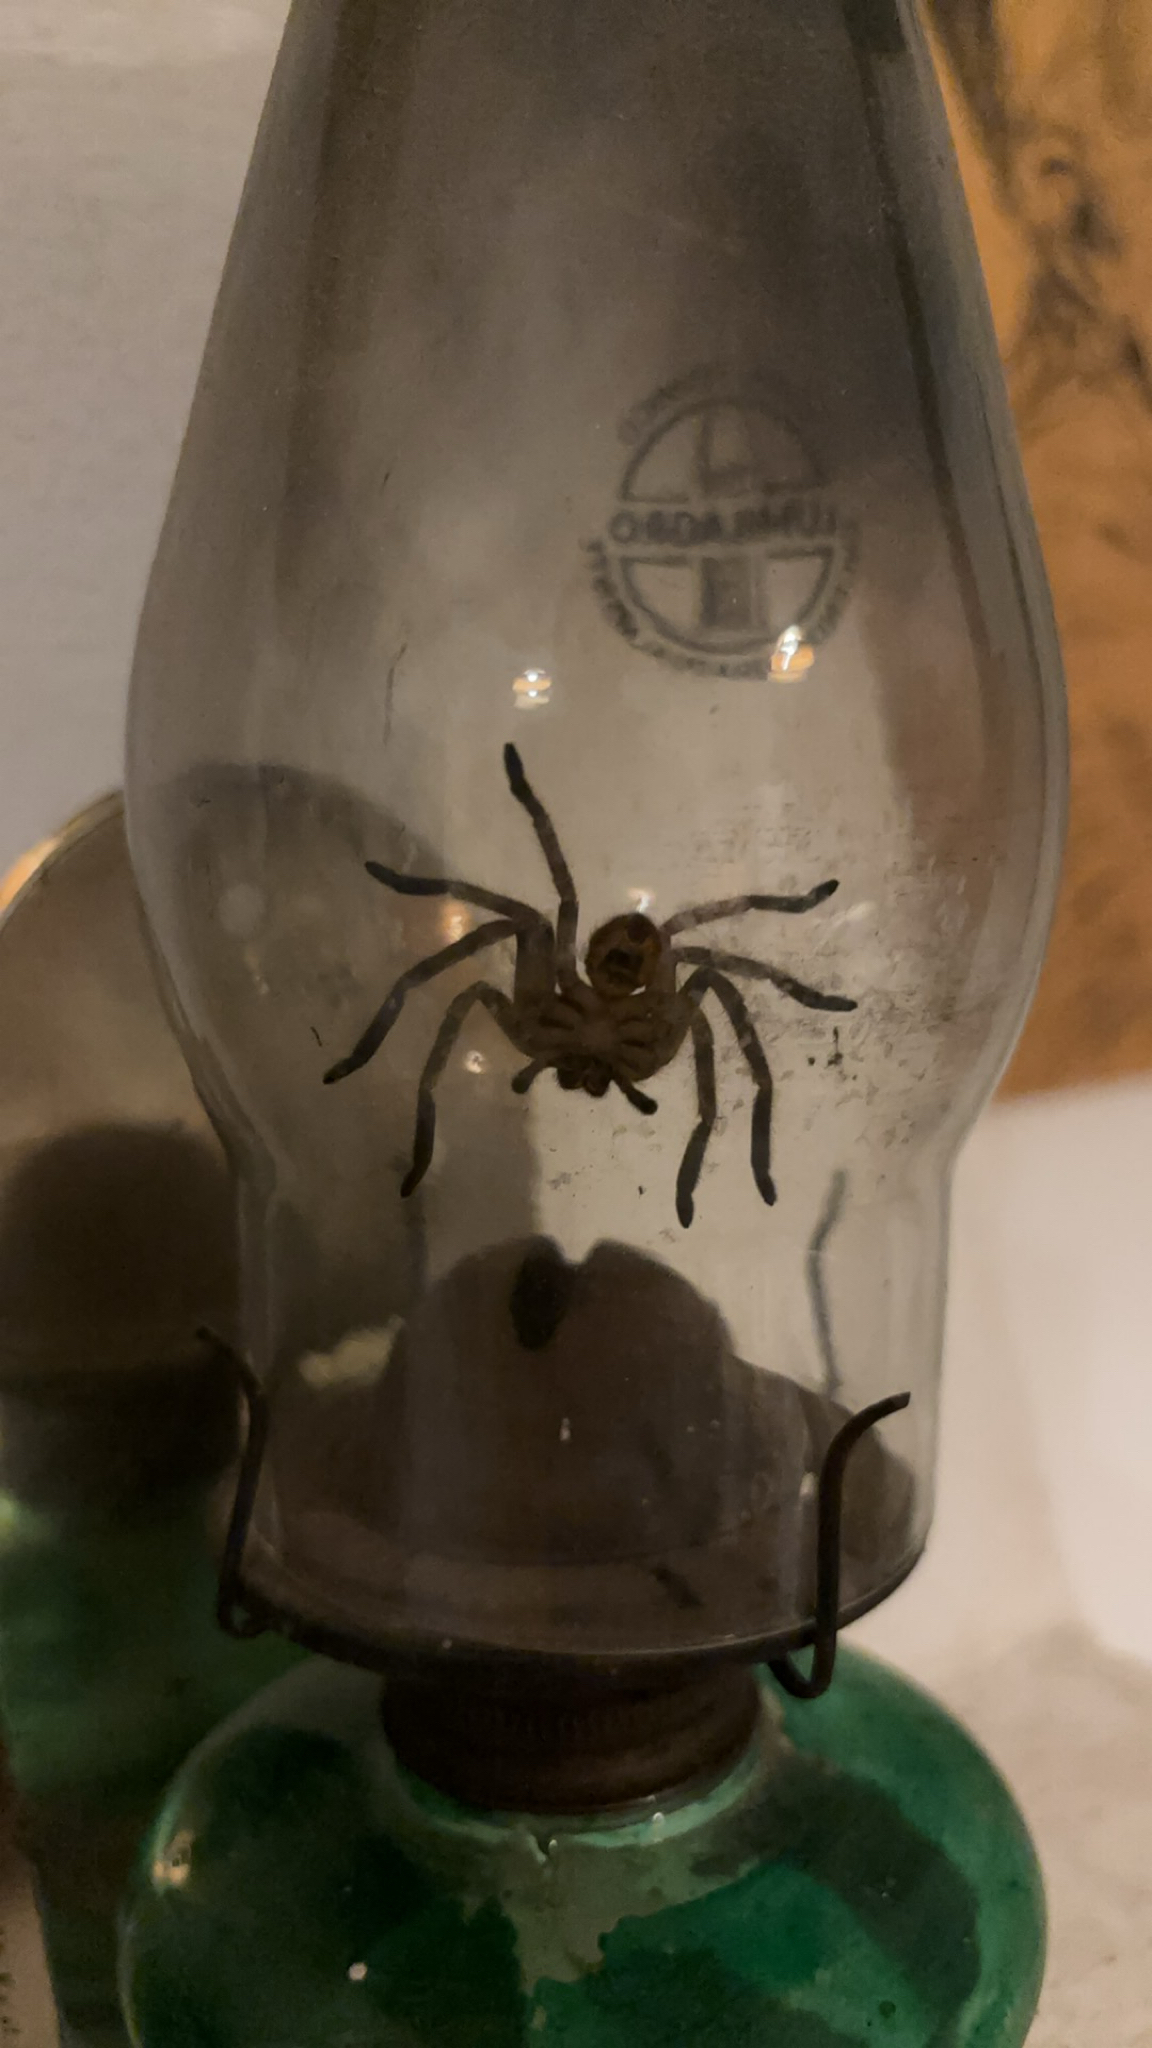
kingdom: Animalia
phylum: Arthropoda
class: Arachnida
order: Araneae
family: Sparassidae
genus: Polybetes
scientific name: Polybetes pythagoricus
